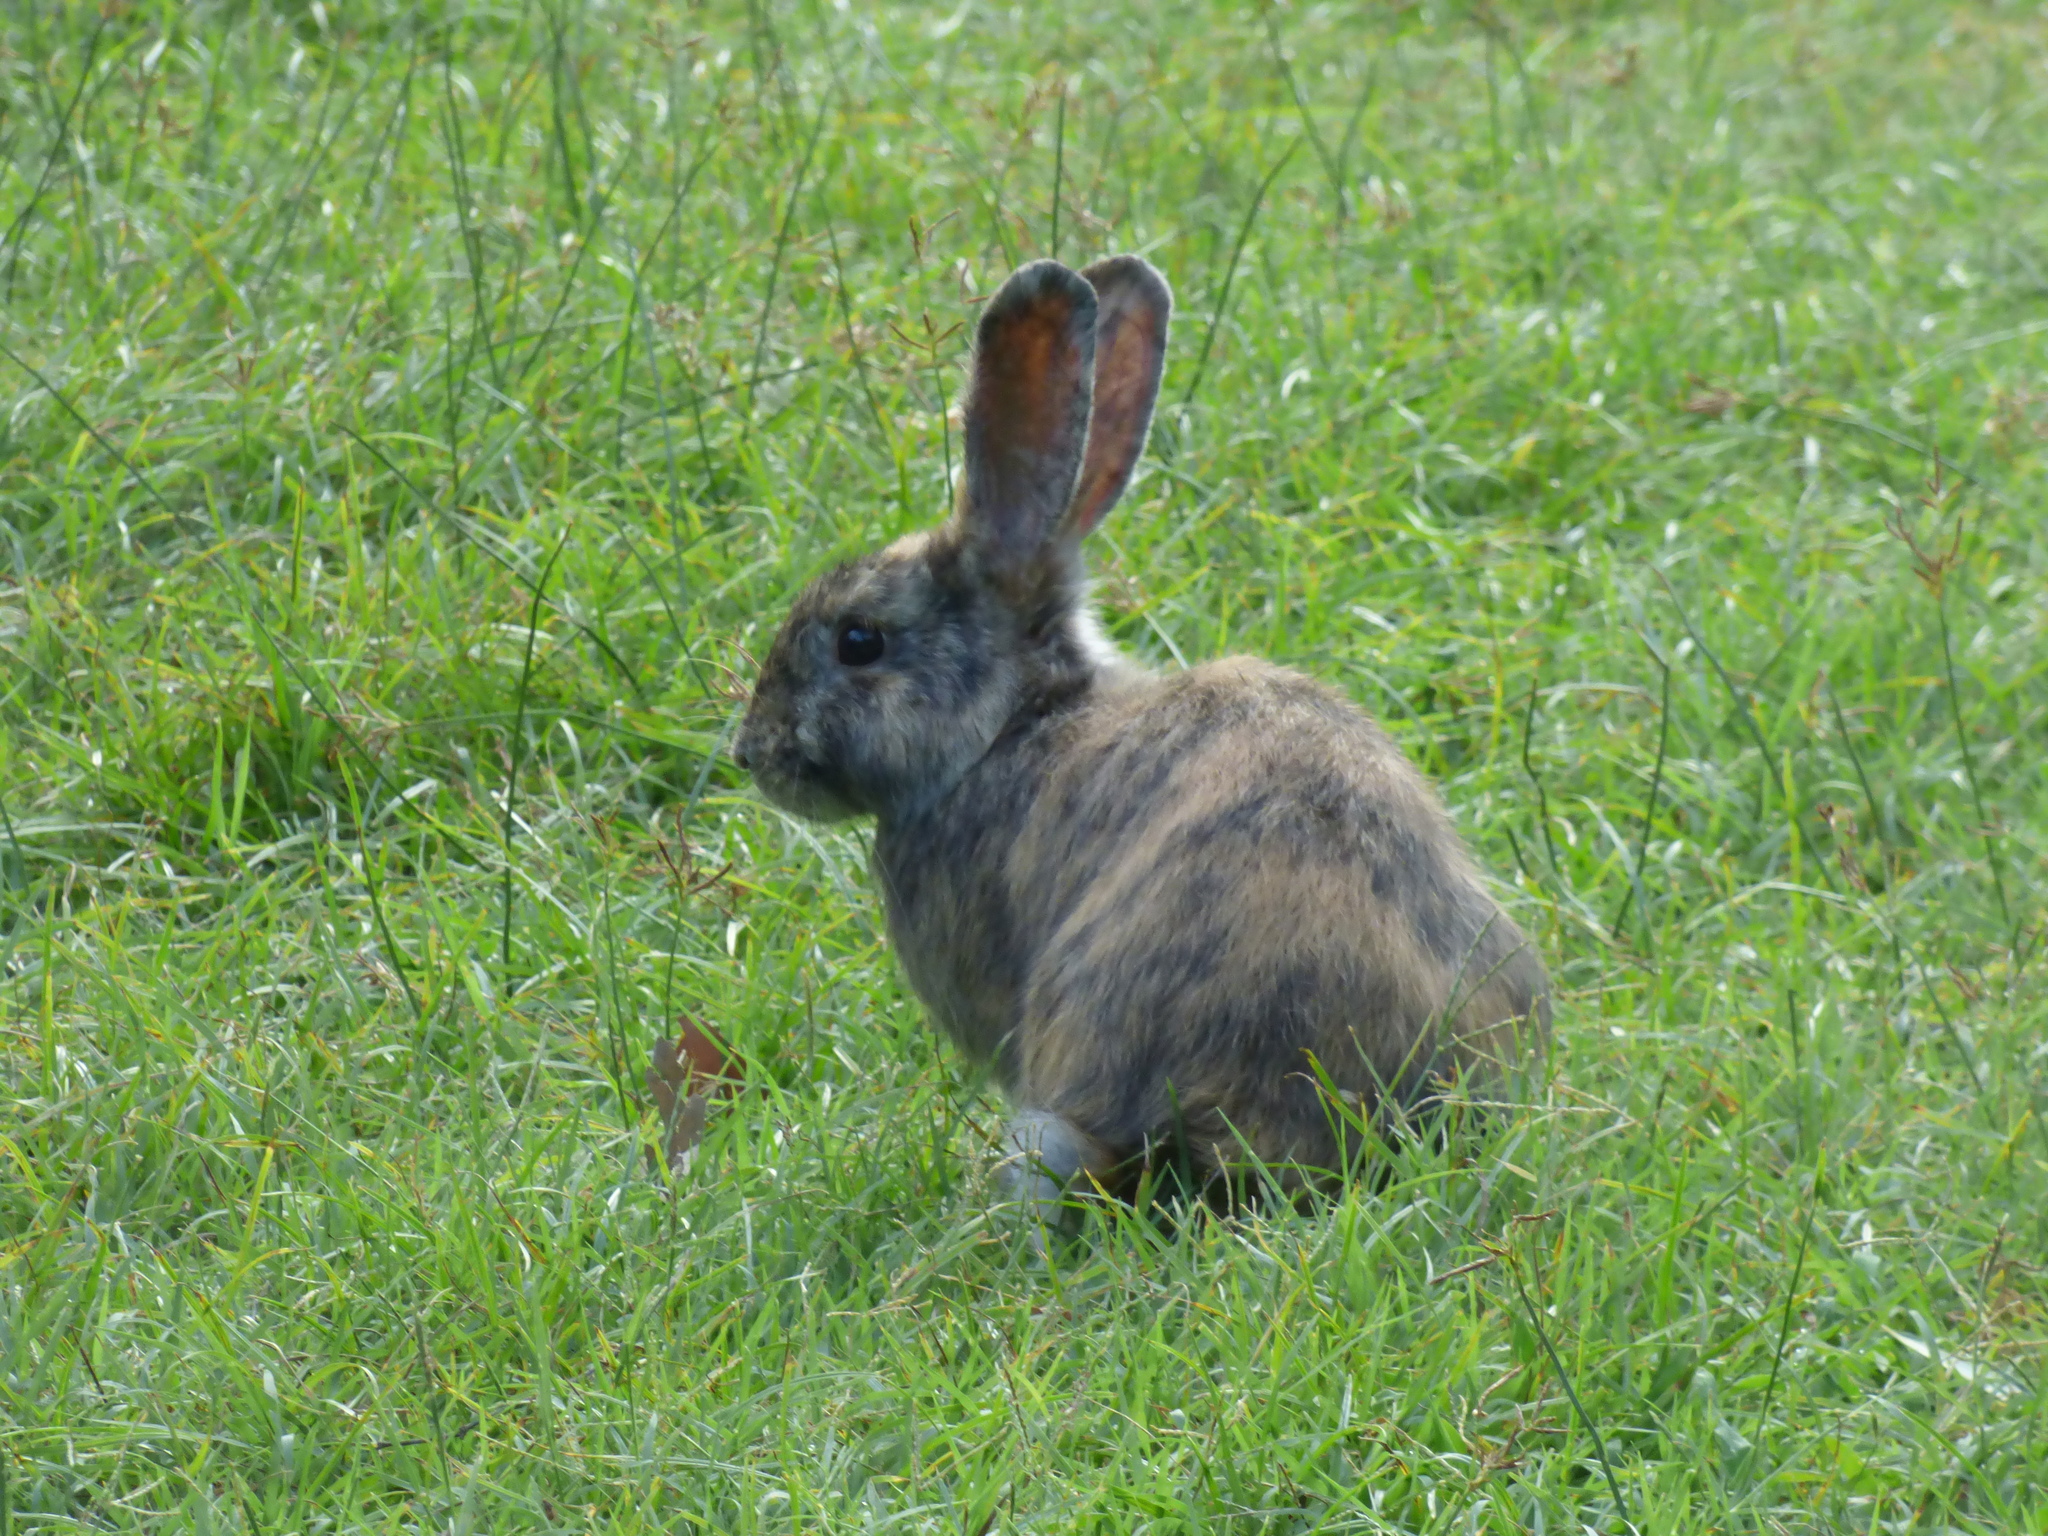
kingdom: Animalia
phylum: Chordata
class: Mammalia
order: Lagomorpha
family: Leporidae
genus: Oryctolagus
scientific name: Oryctolagus cuniculus
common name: European rabbit
